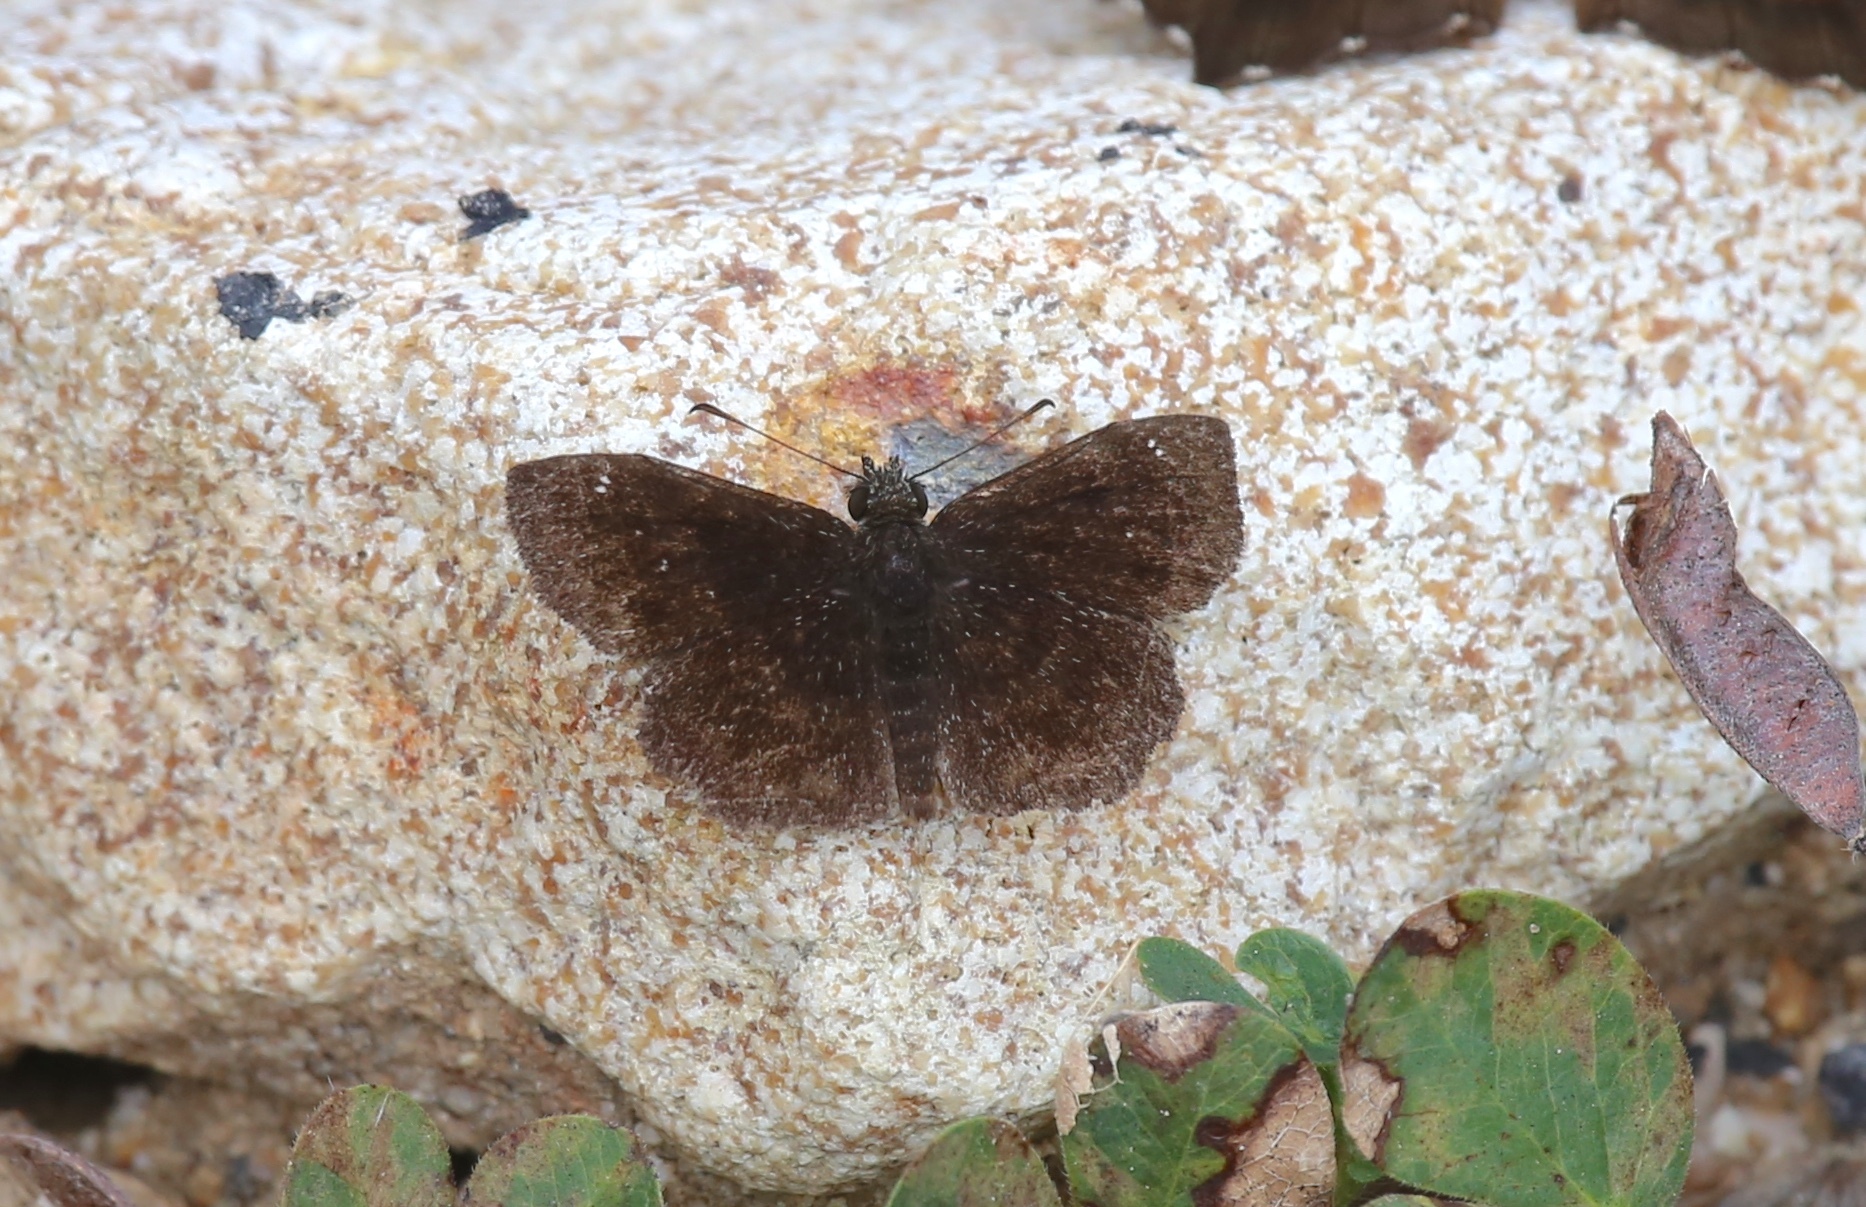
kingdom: Animalia
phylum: Arthropoda
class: Insecta
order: Lepidoptera
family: Hesperiidae
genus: Staphylus
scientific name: Staphylus mazans
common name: Mazans scallopwing
